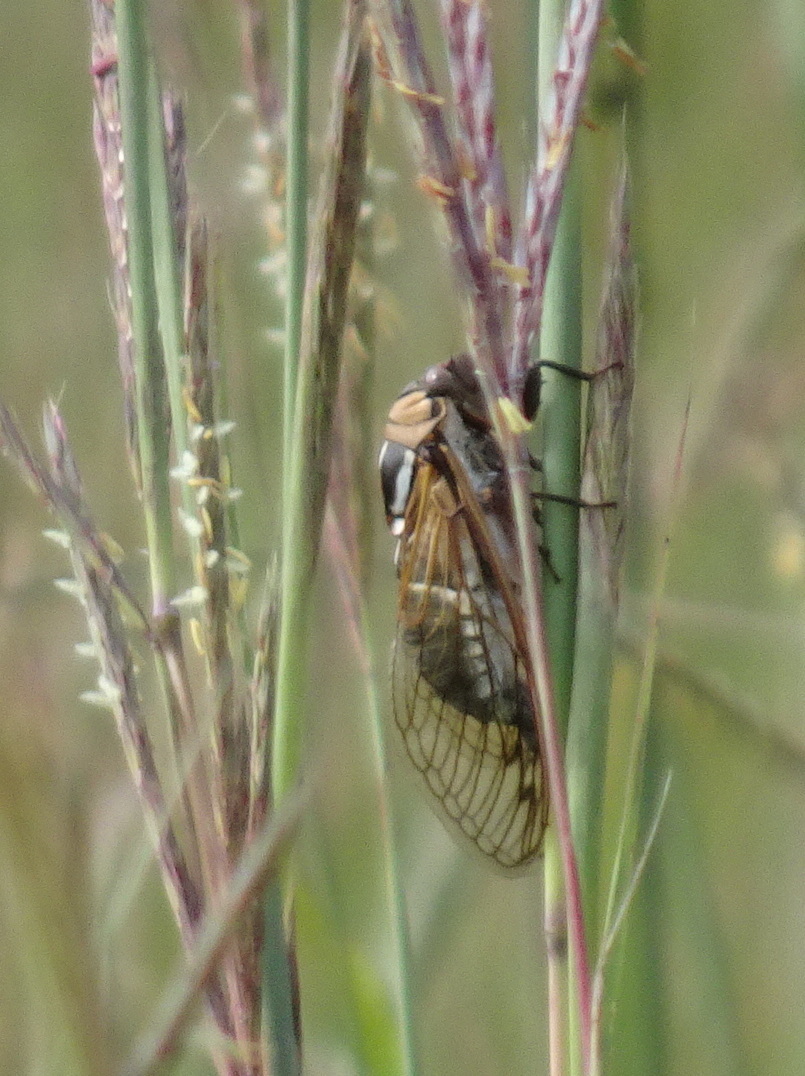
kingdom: Animalia
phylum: Arthropoda
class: Insecta
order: Hemiptera
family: Cicadidae
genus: Megatibicen
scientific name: Megatibicen dorsatus
